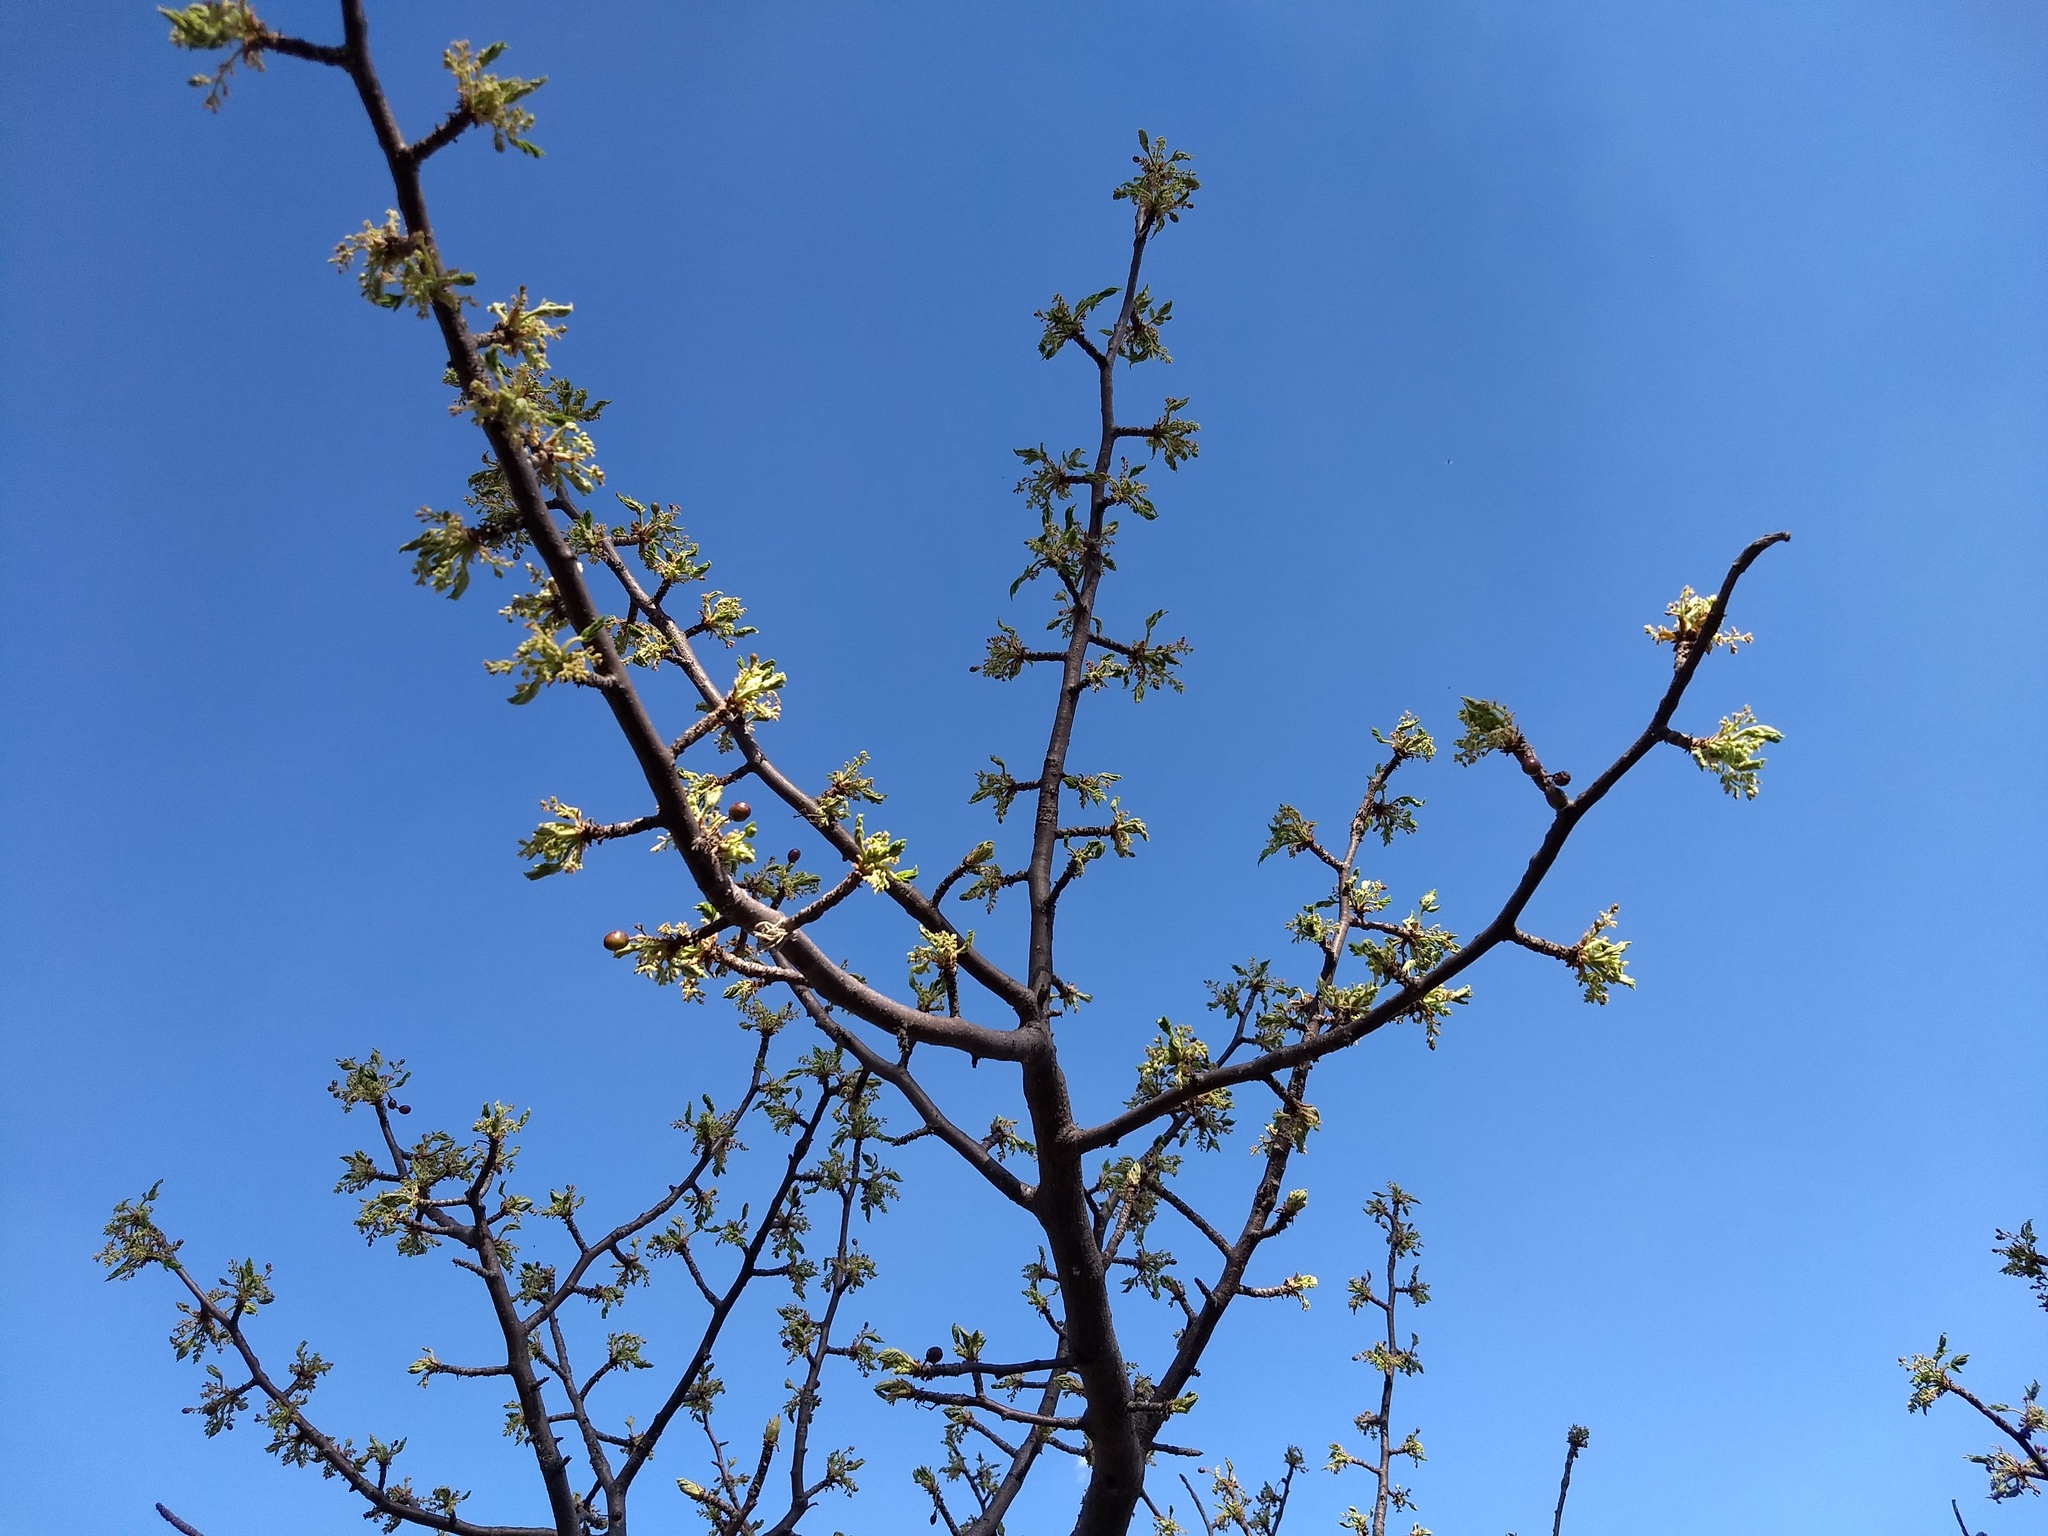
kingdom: Plantae
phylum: Tracheophyta
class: Magnoliopsida
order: Sapindales
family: Burseraceae
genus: Bursera
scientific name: Bursera cuneata
